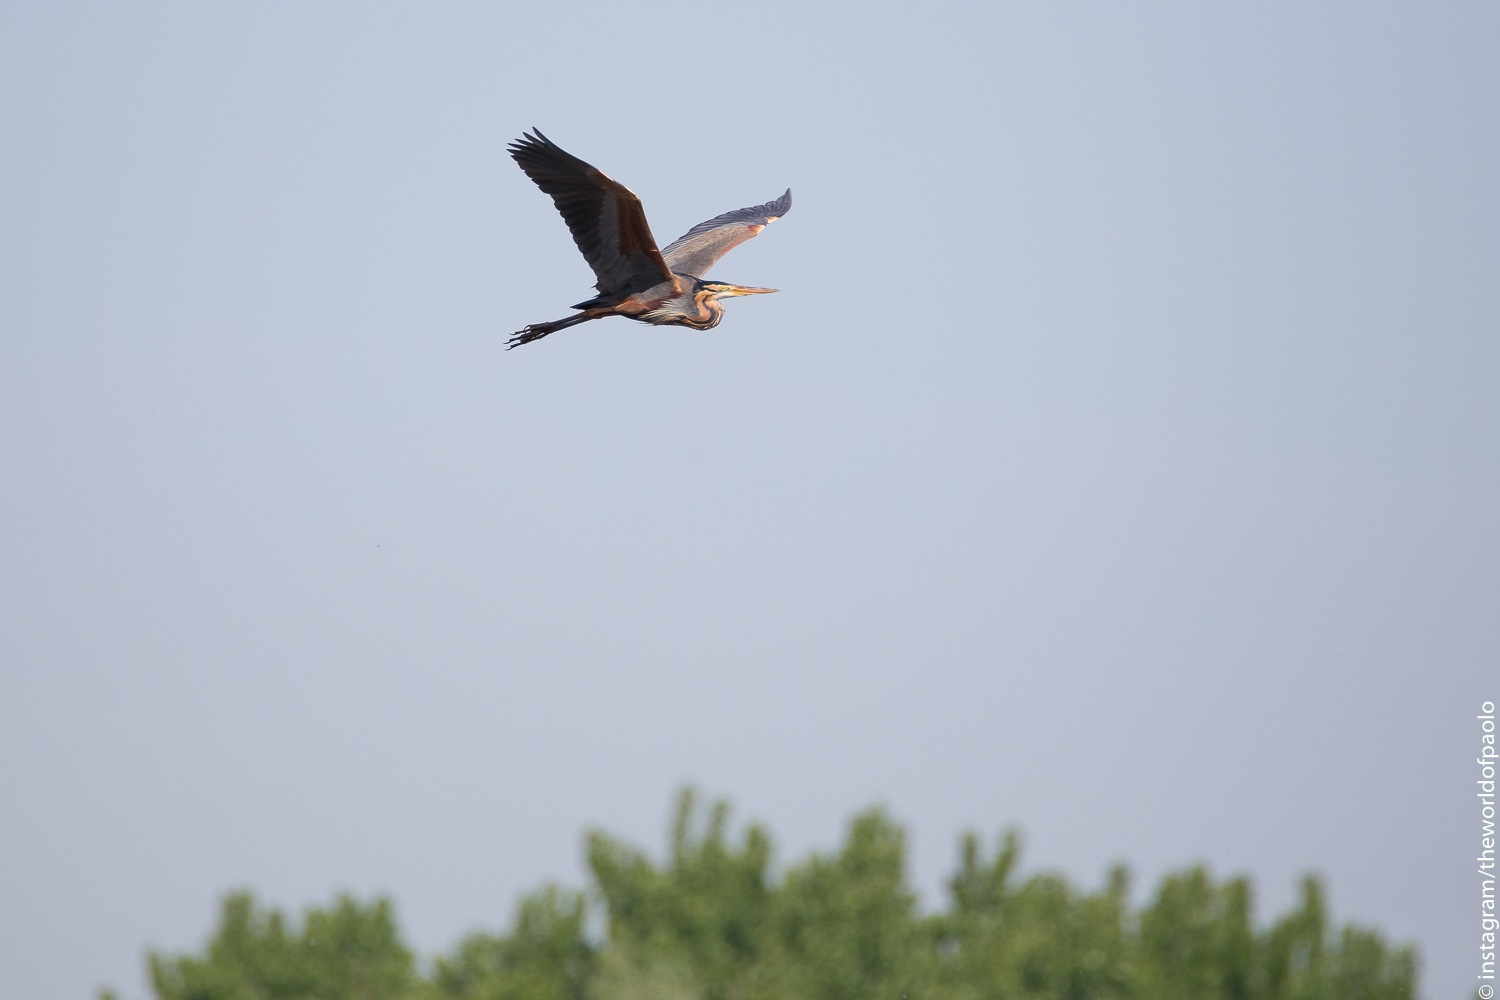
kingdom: Animalia
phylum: Chordata
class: Aves
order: Pelecaniformes
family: Ardeidae
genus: Ardea
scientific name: Ardea purpurea
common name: Purple heron
